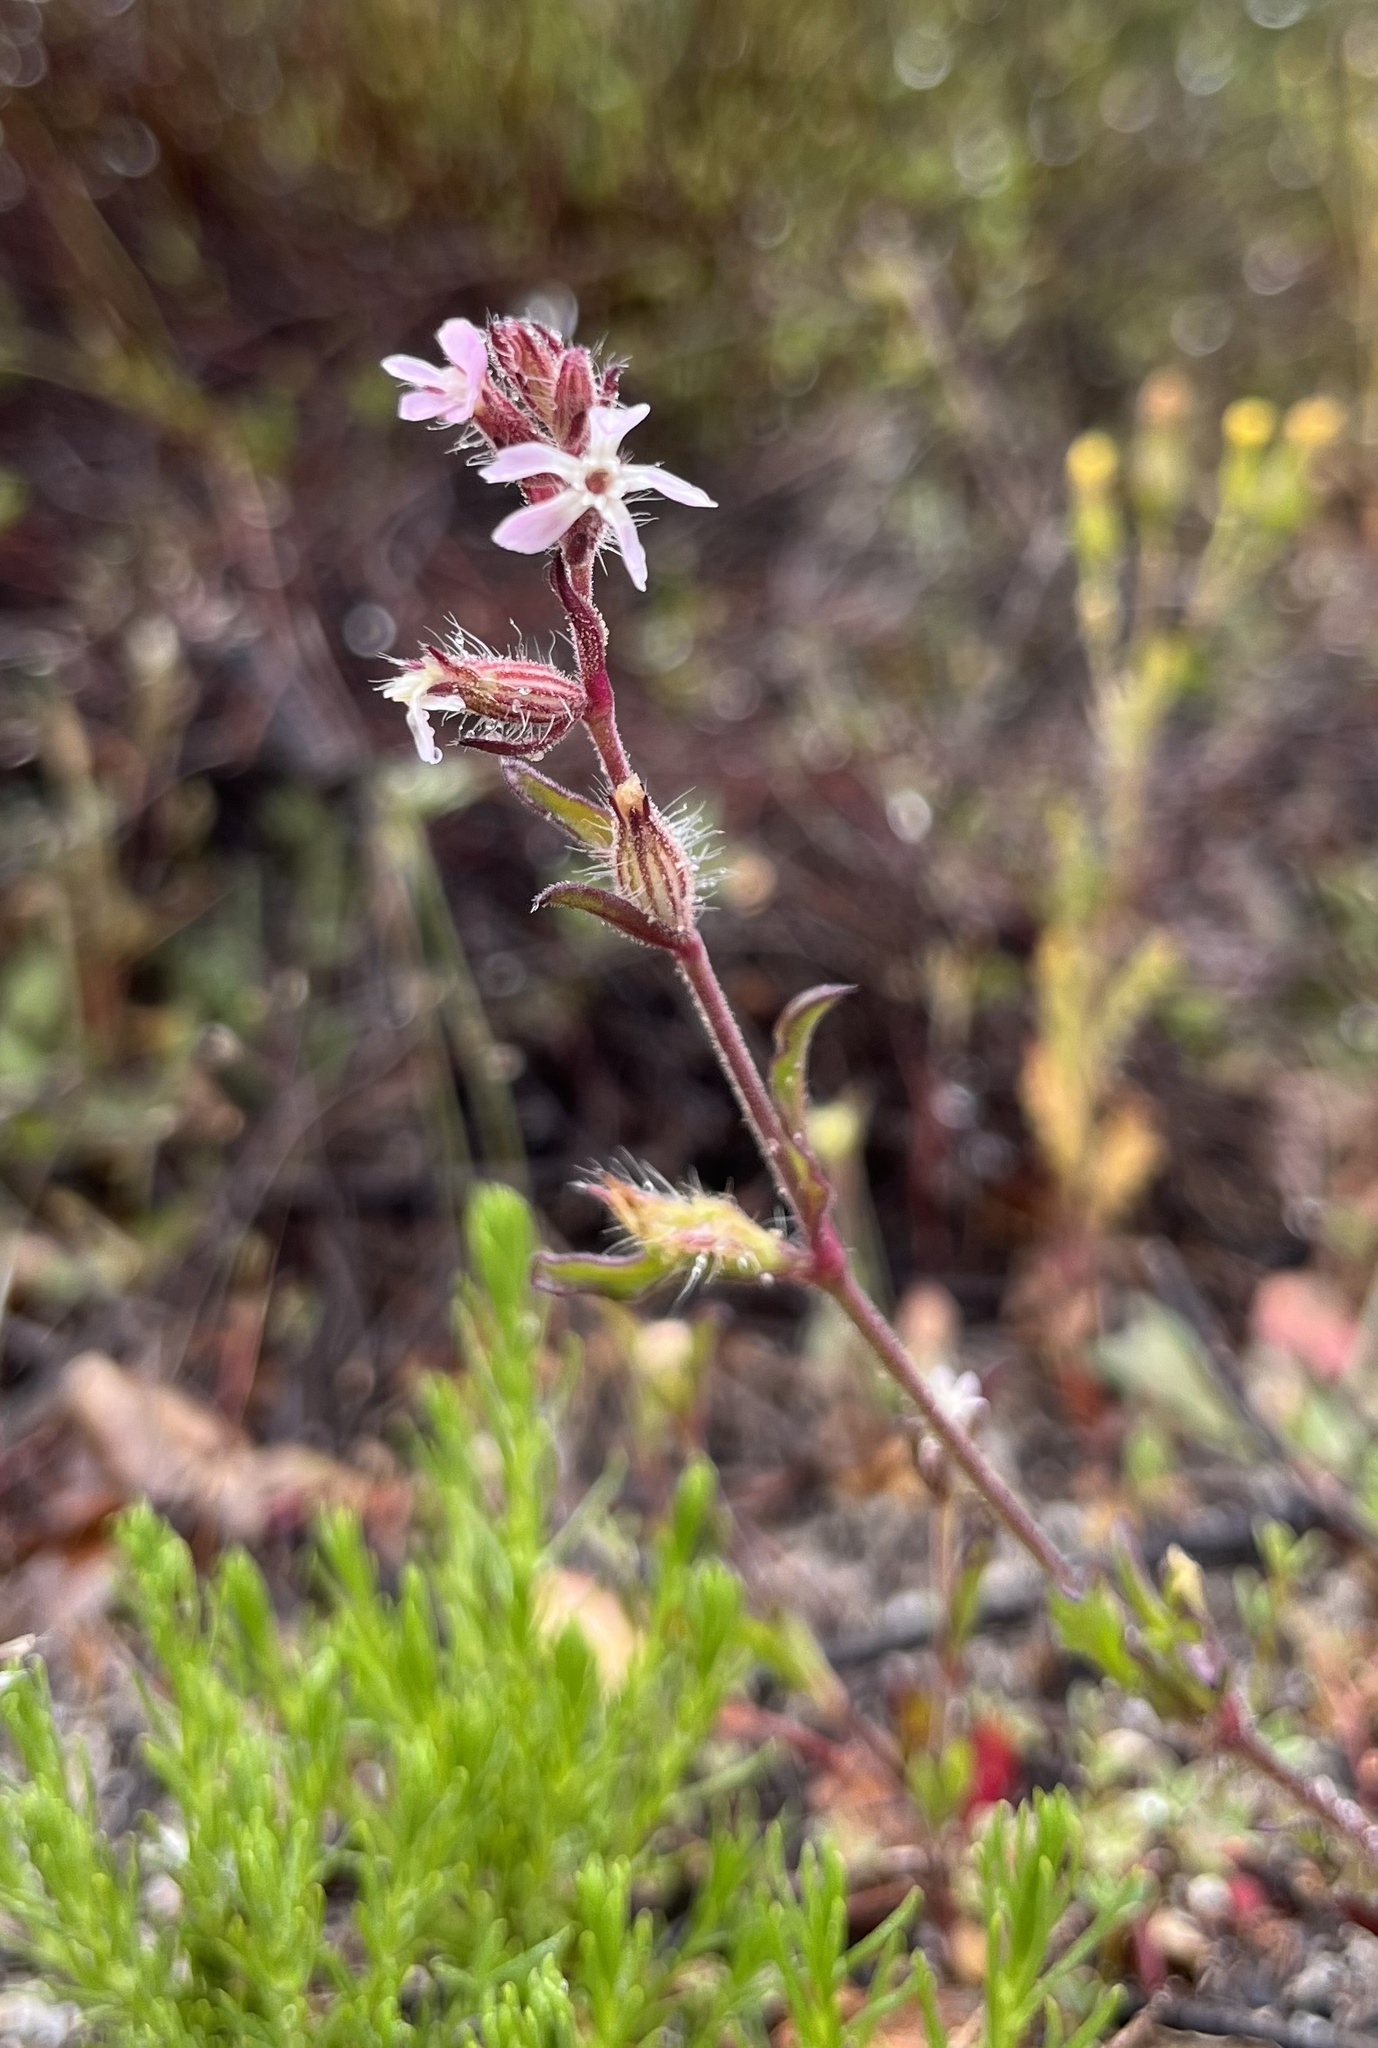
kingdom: Plantae
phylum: Tracheophyta
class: Magnoliopsida
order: Caryophyllales
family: Caryophyllaceae
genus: Silene
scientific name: Silene gallica
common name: Small-flowered catchfly
